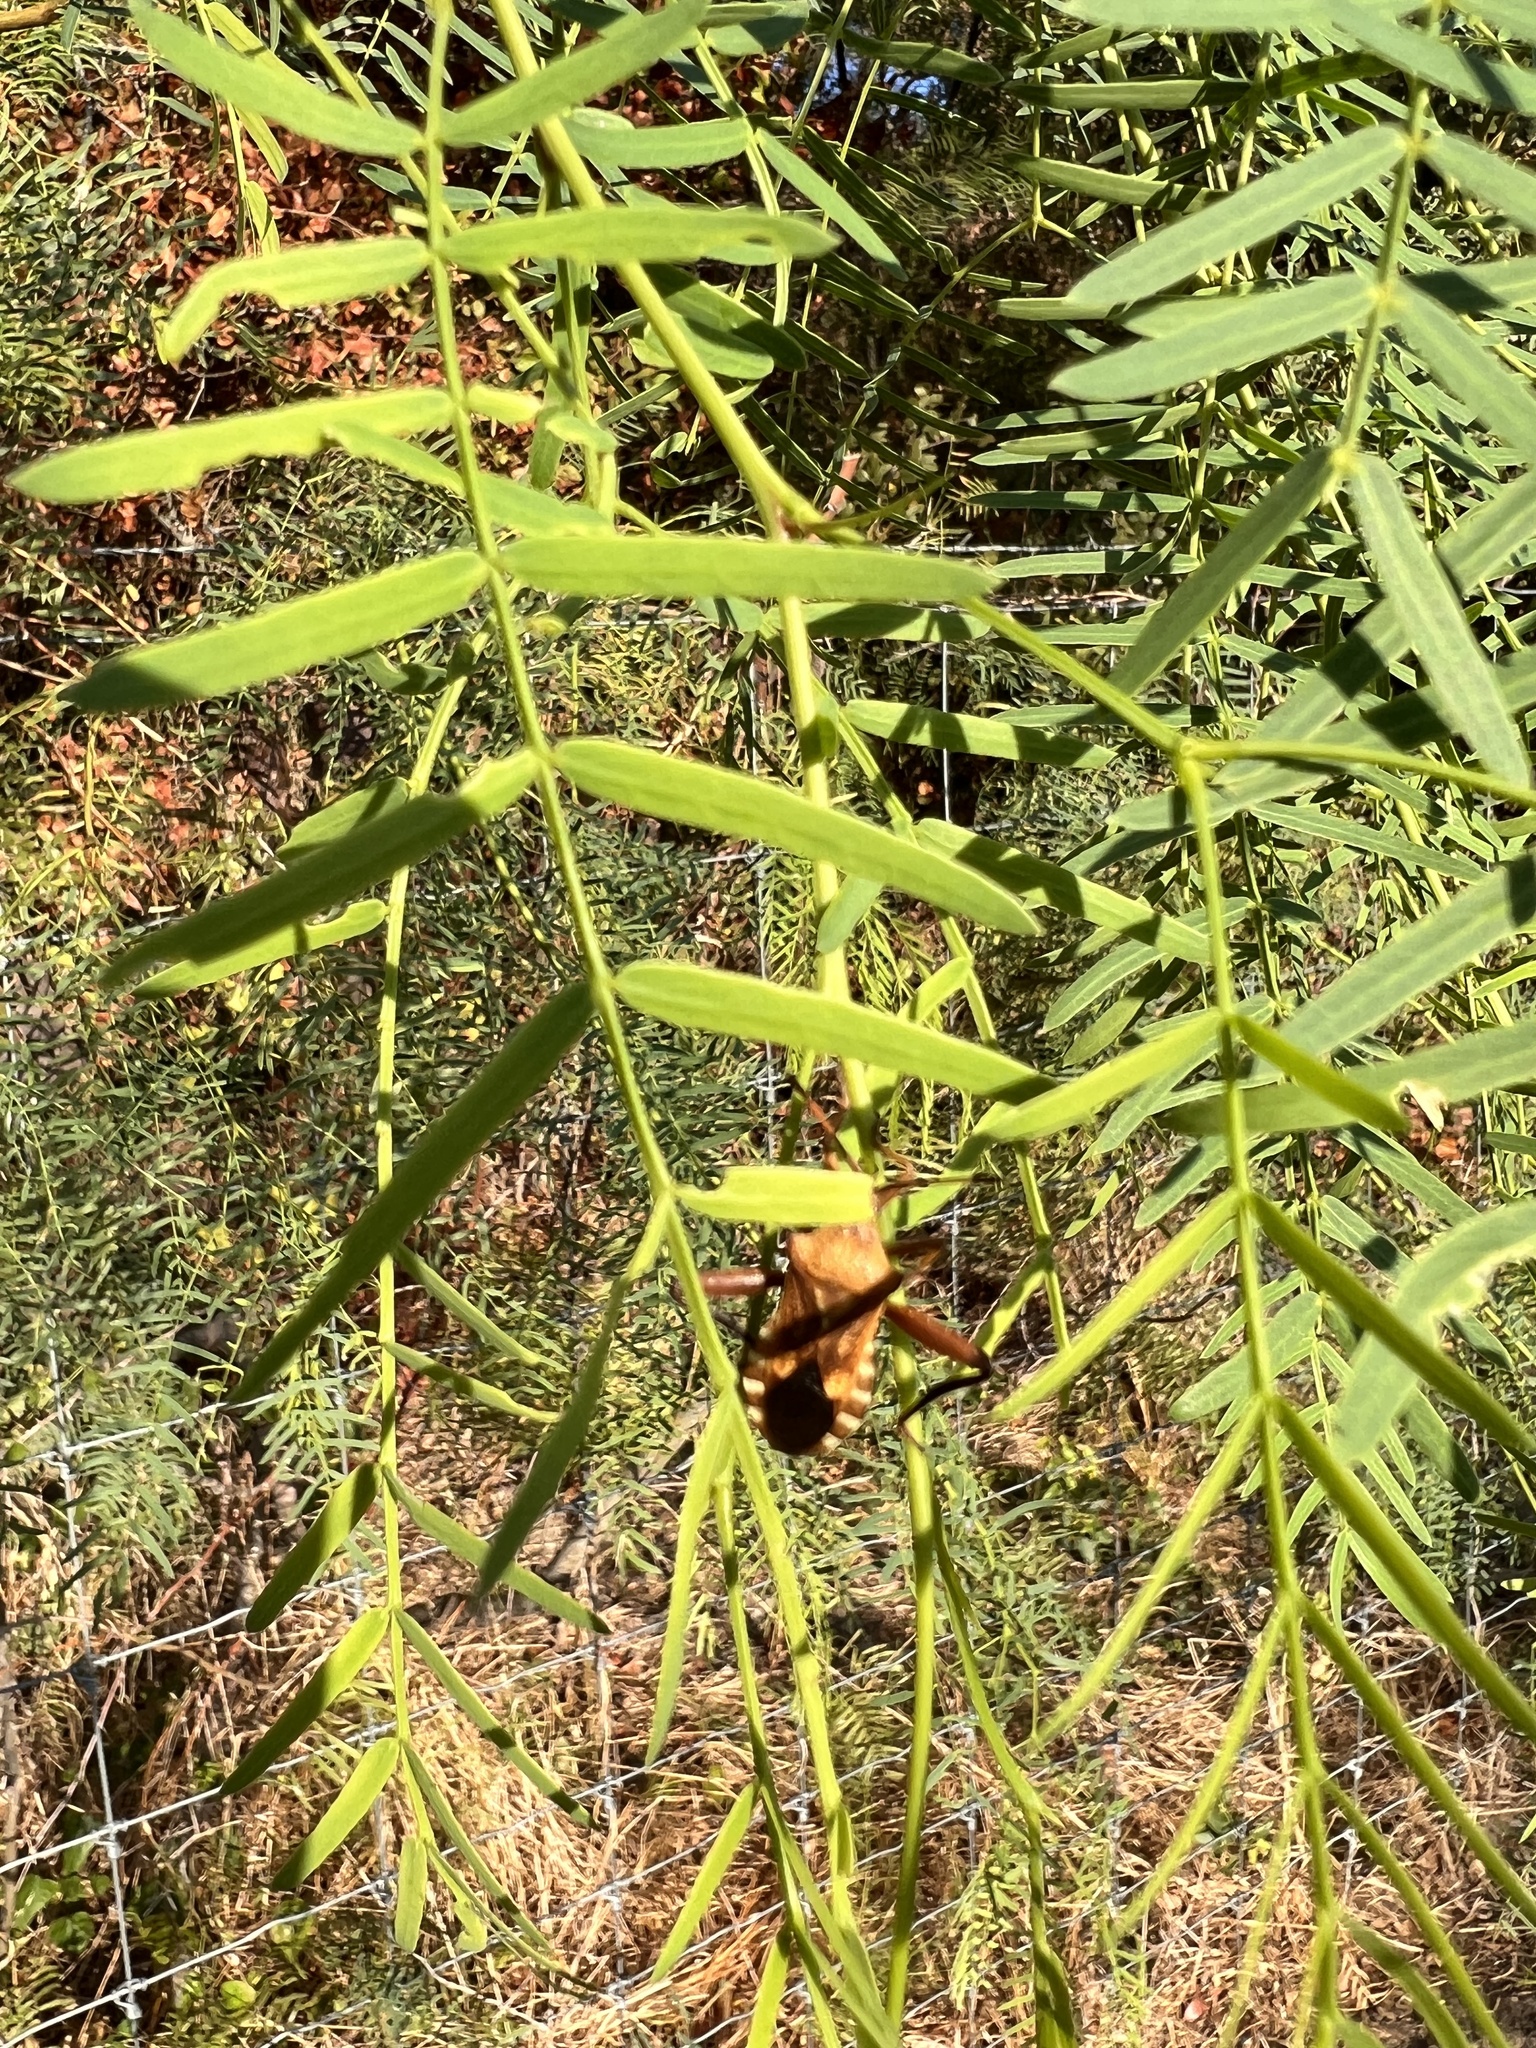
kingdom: Animalia
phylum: Arthropoda
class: Insecta
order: Hemiptera
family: Coreidae
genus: Mozena
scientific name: Mozena obtusa
